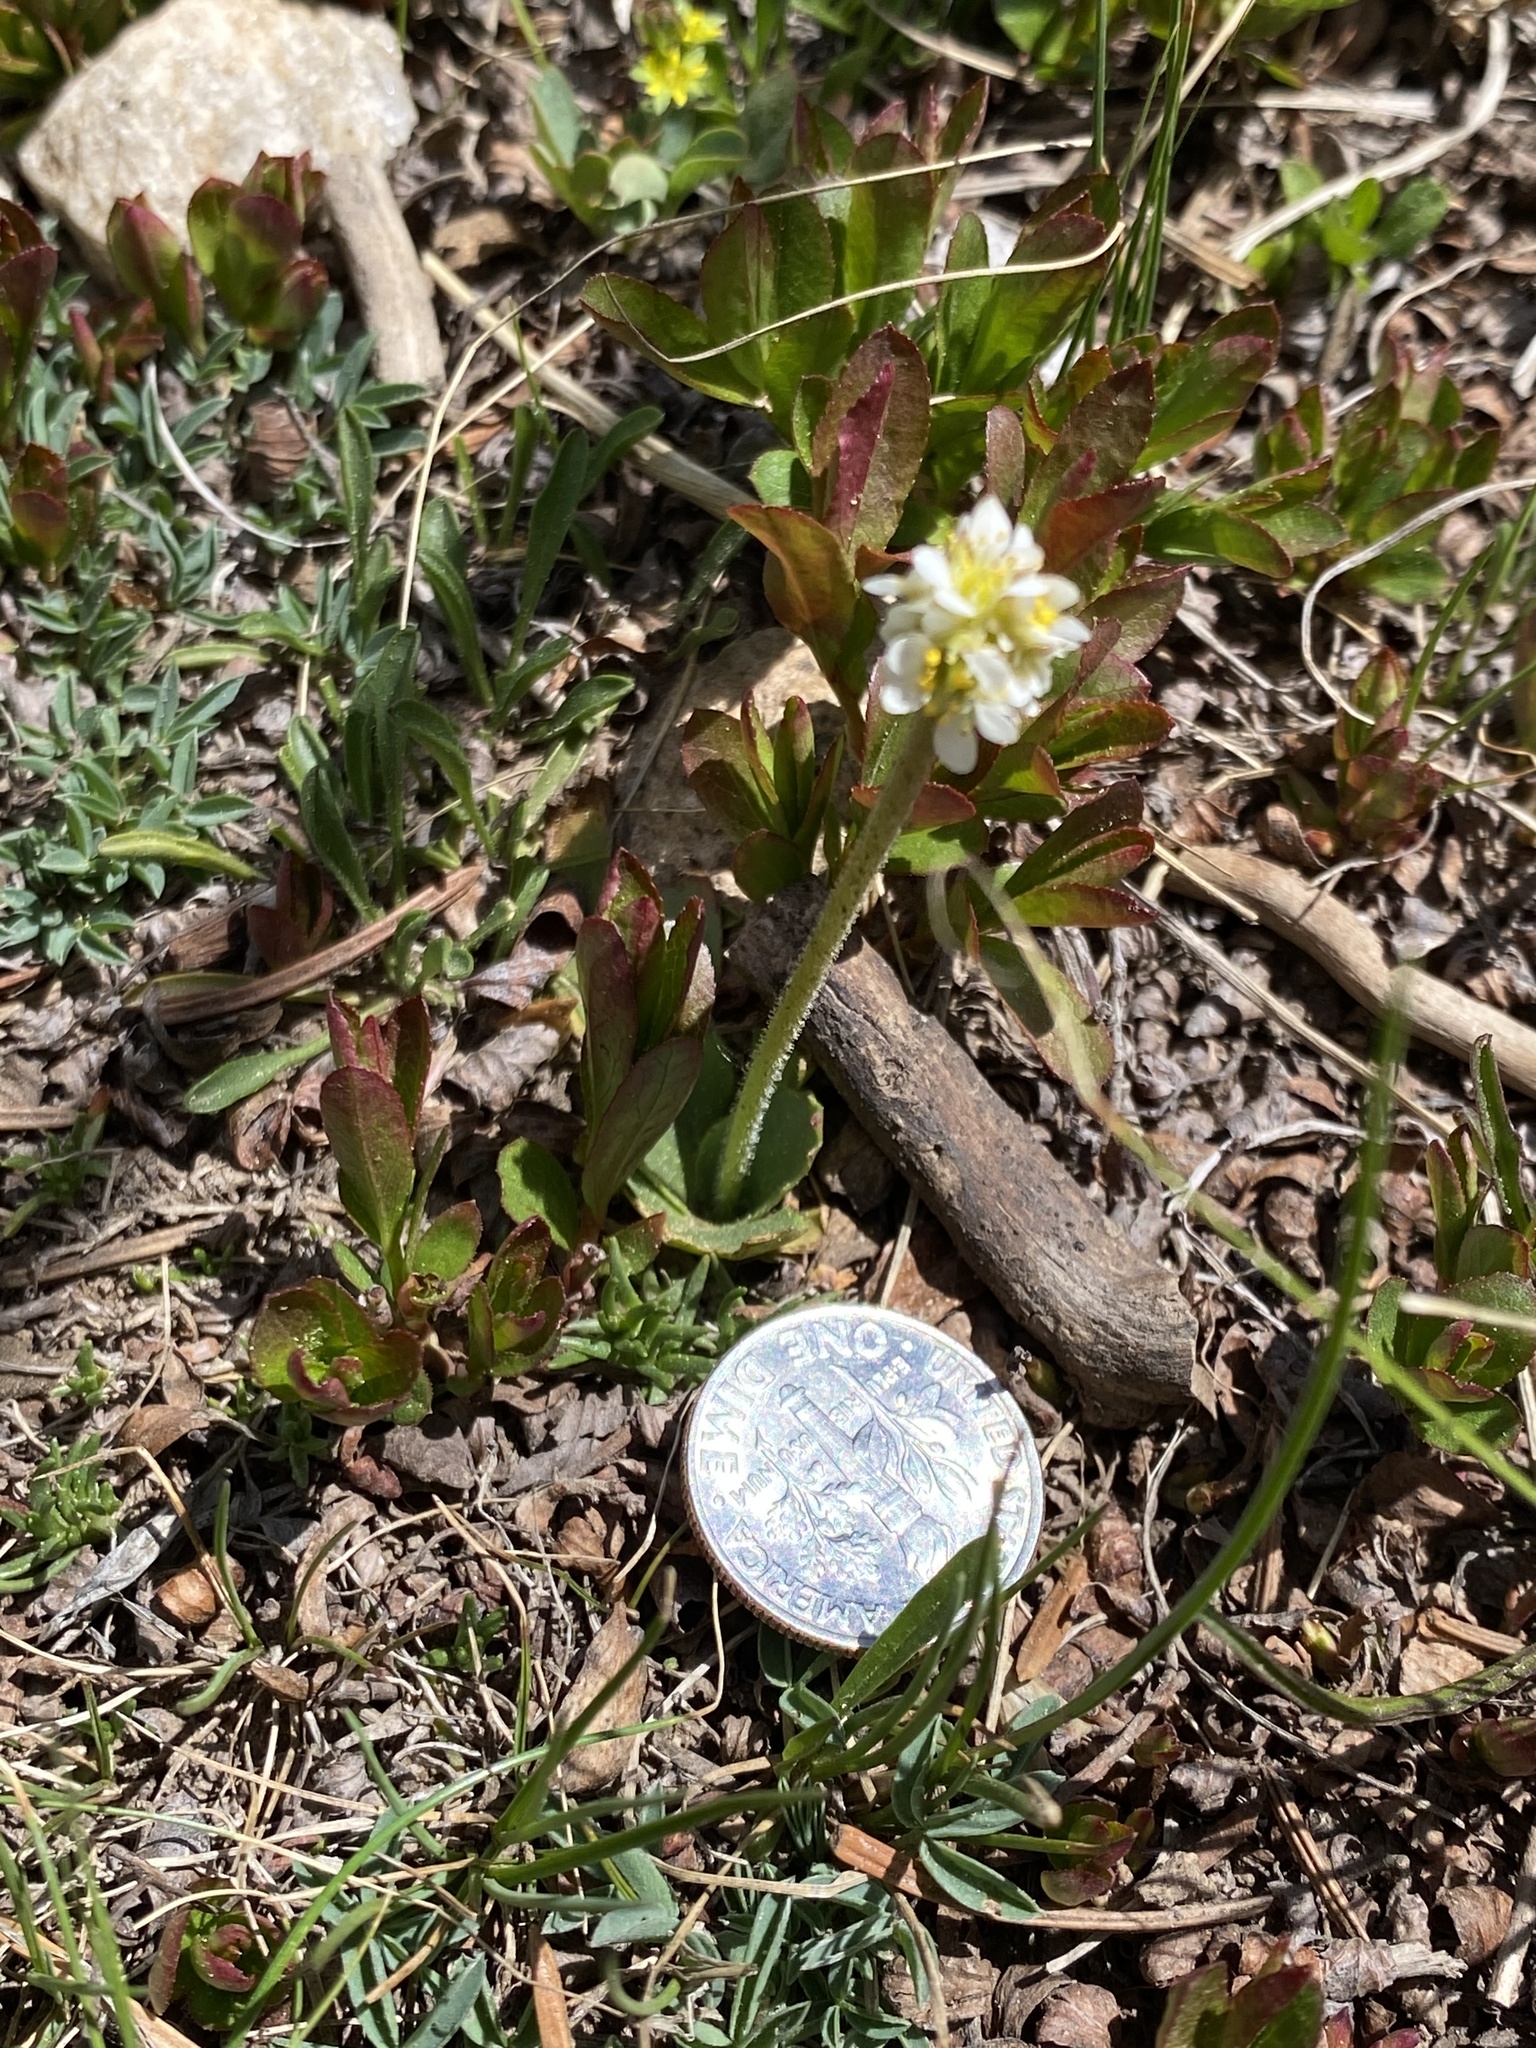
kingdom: Plantae
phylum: Tracheophyta
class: Magnoliopsida
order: Saxifragales
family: Saxifragaceae
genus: Micranthes
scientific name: Micranthes rhomboidea
